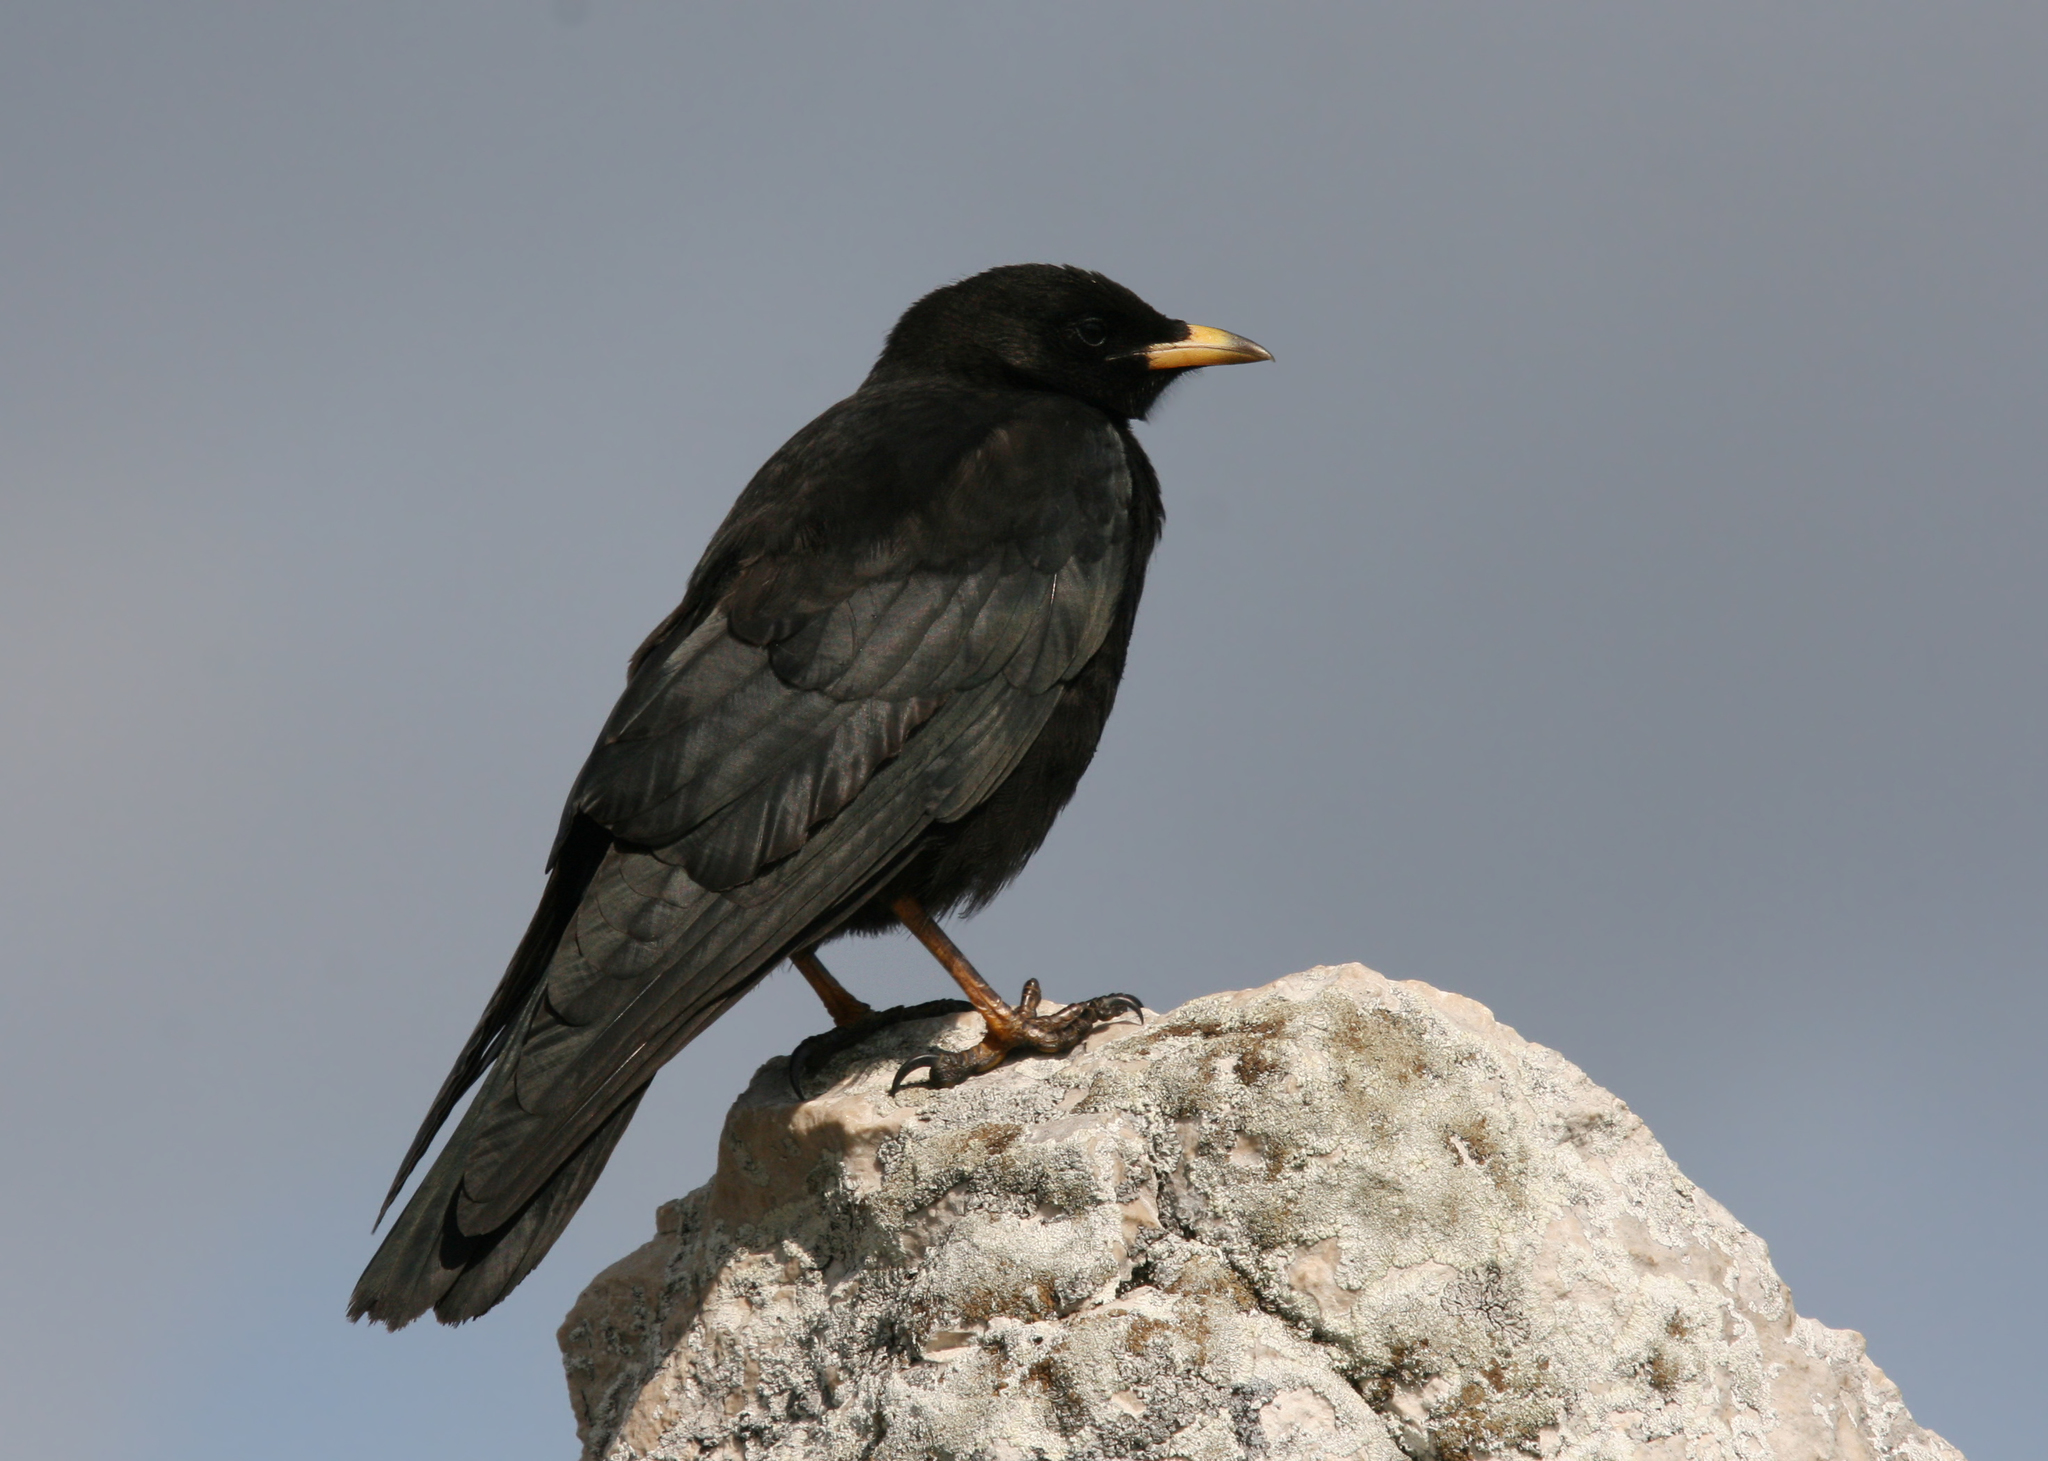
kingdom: Animalia
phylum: Chordata
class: Aves
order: Passeriformes
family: Corvidae
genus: Pyrrhocorax
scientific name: Pyrrhocorax graculus
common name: Alpine chough
